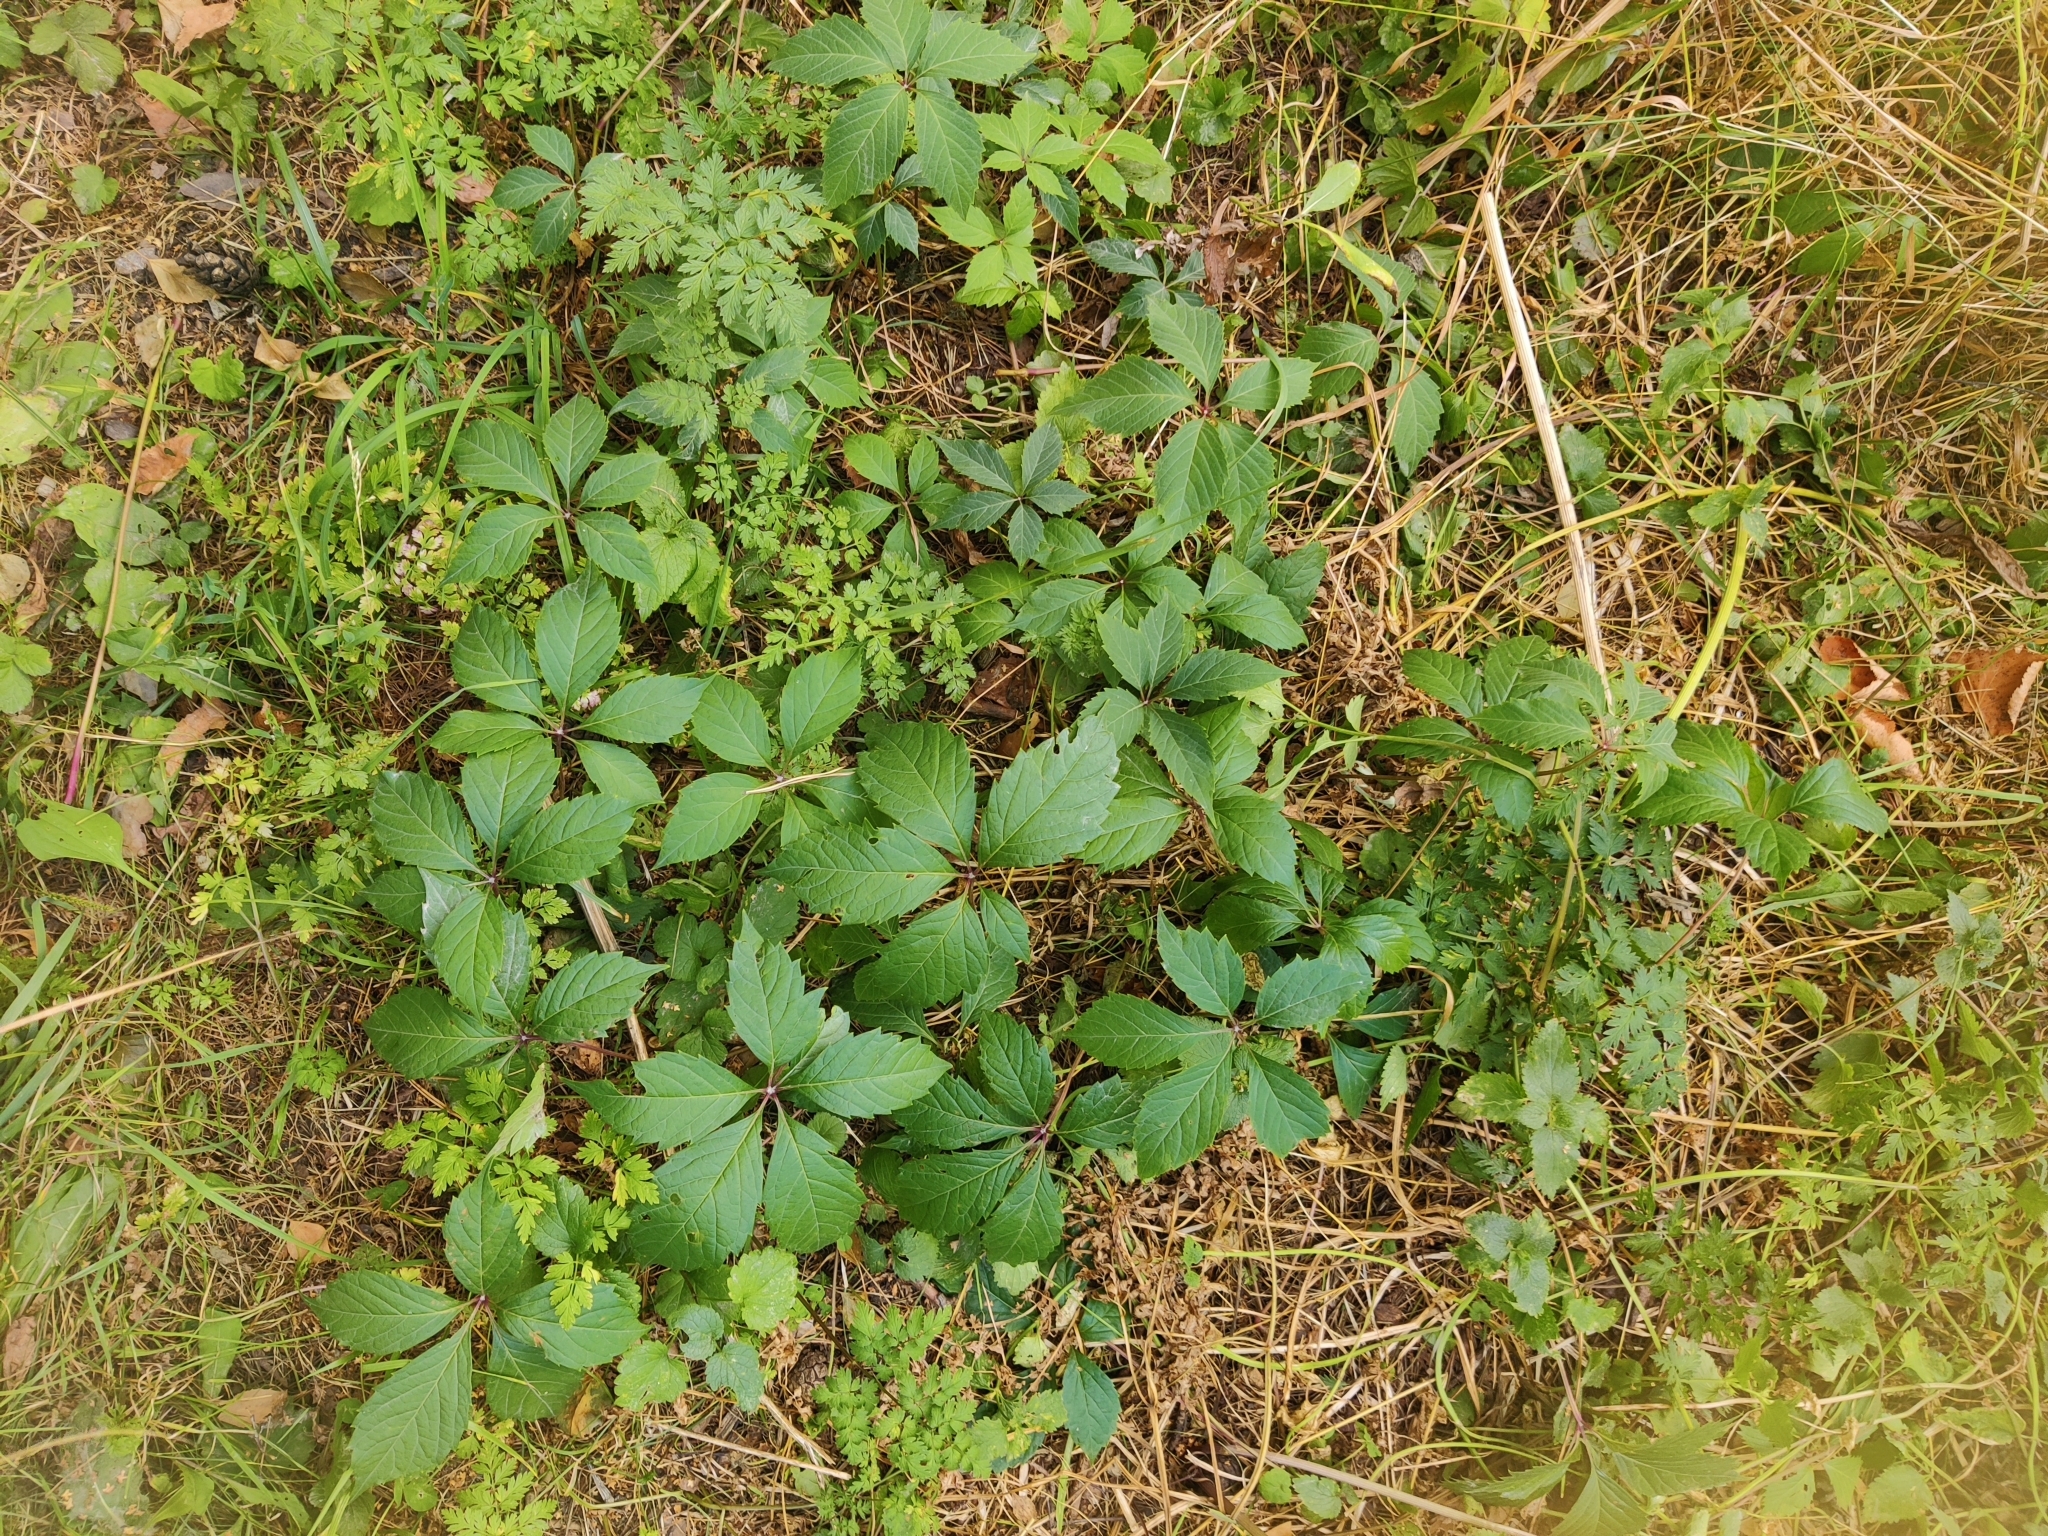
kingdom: Plantae
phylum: Tracheophyta
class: Magnoliopsida
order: Vitales
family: Vitaceae
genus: Parthenocissus
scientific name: Parthenocissus inserta
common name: False virginia-creeper
